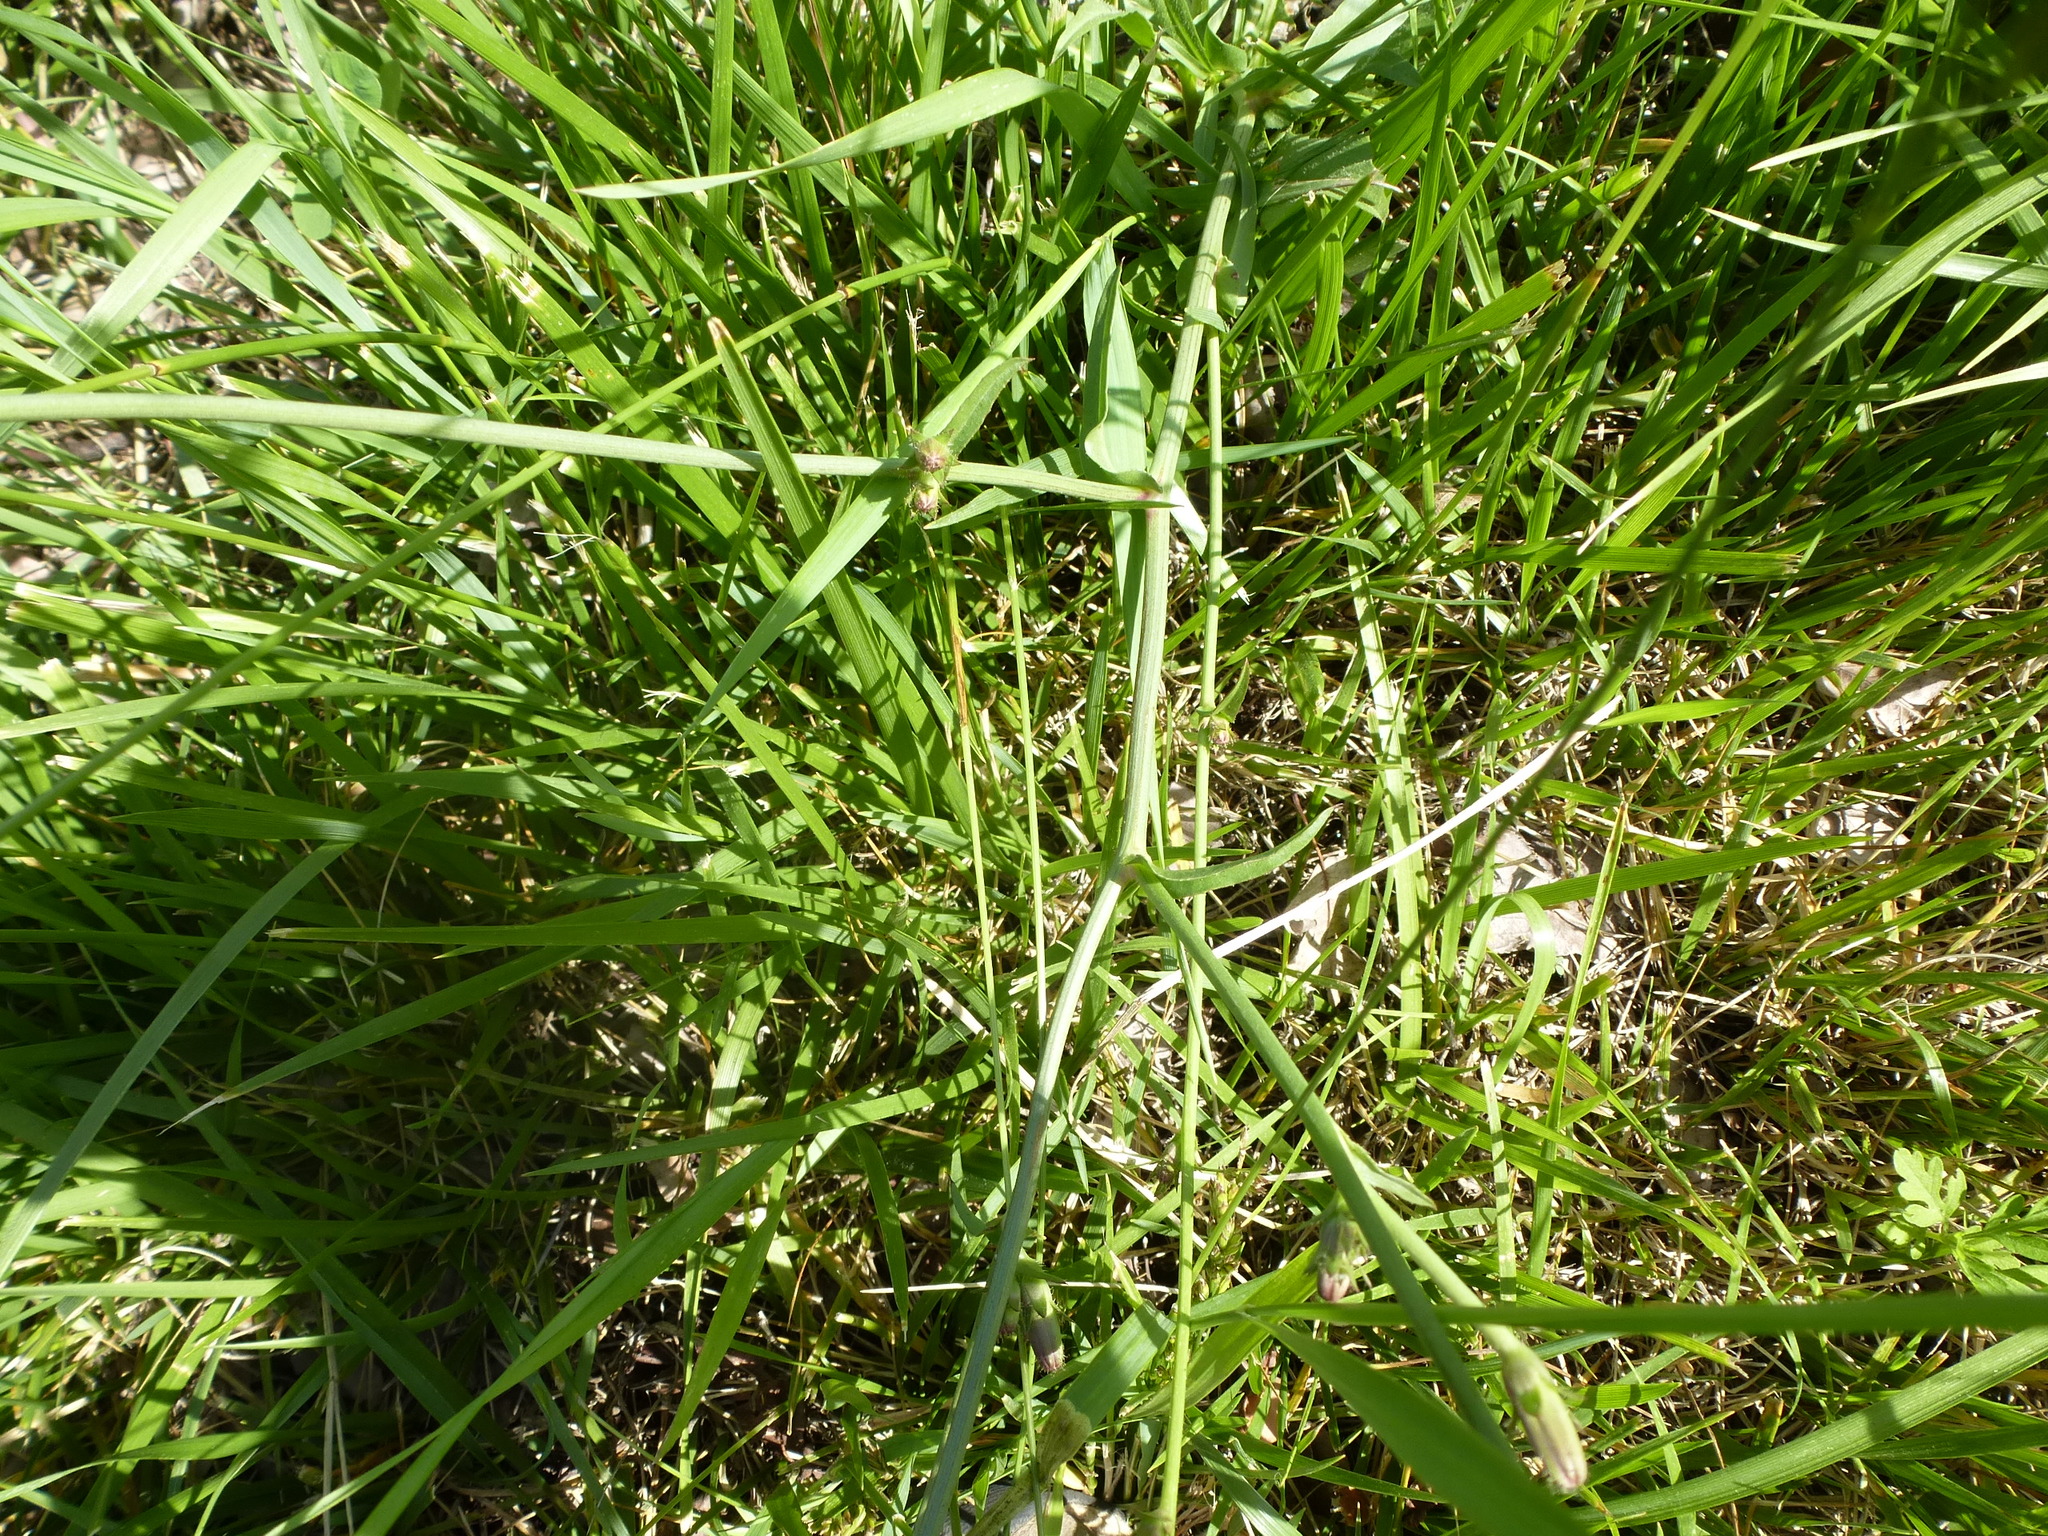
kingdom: Plantae
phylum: Tracheophyta
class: Magnoliopsida
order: Asterales
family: Asteraceae
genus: Cichorium
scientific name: Cichorium intybus
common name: Chicory
